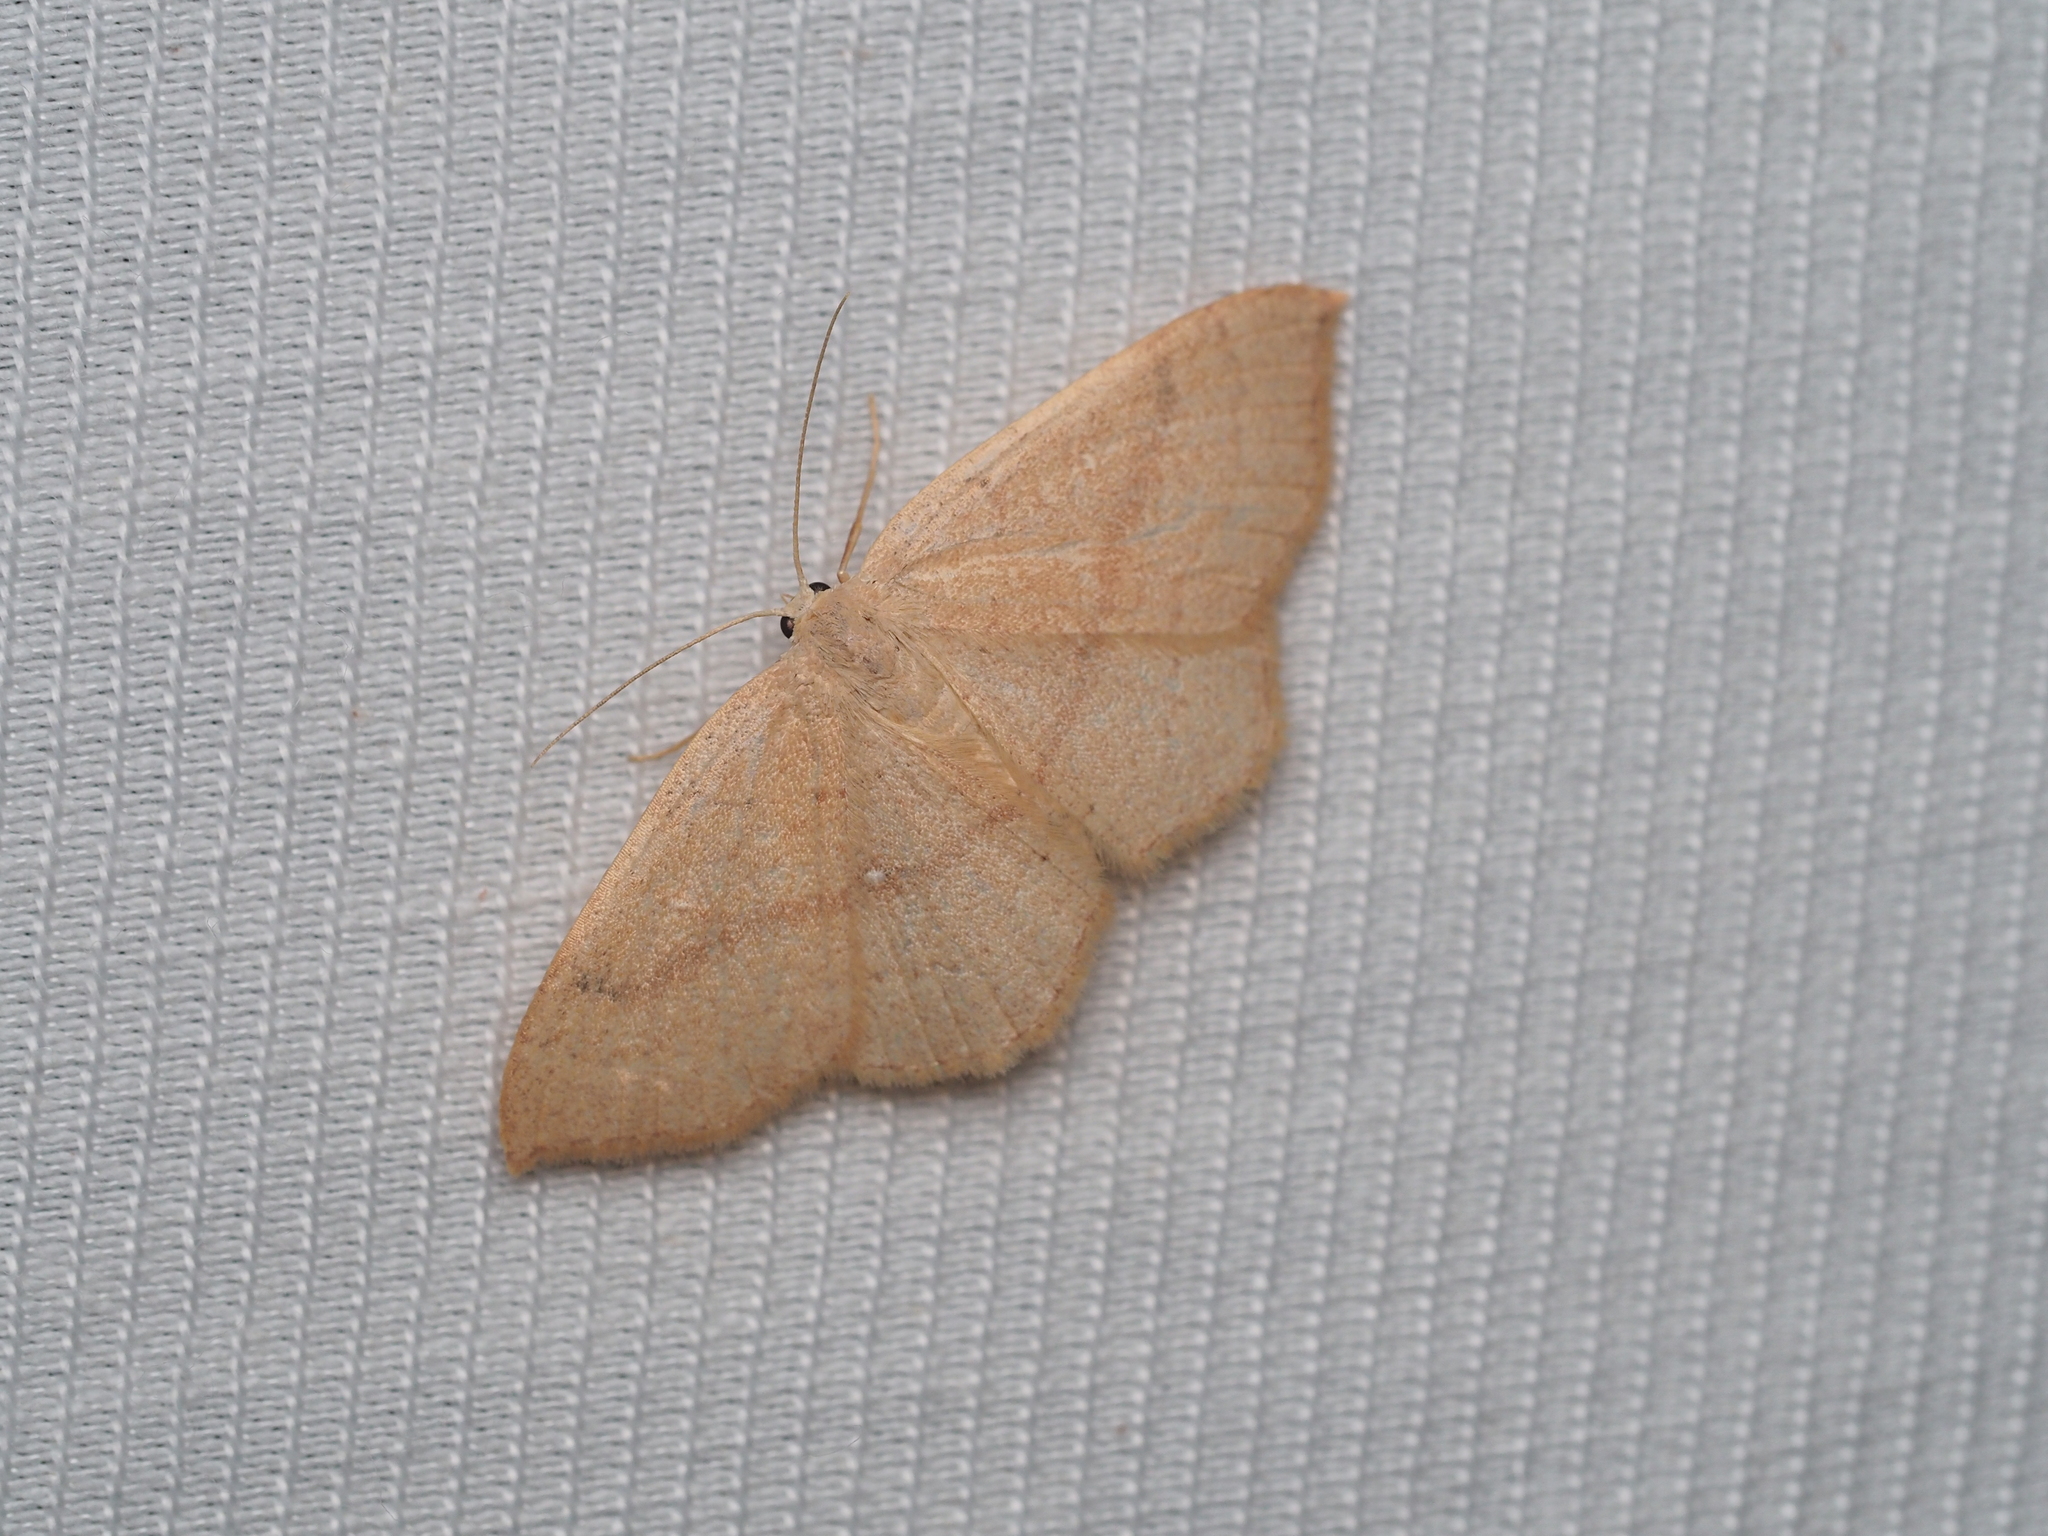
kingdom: Animalia
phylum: Arthropoda
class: Insecta
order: Lepidoptera
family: Geometridae
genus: Cyclophora
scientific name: Cyclophora linearia
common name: Clay triple-lines
